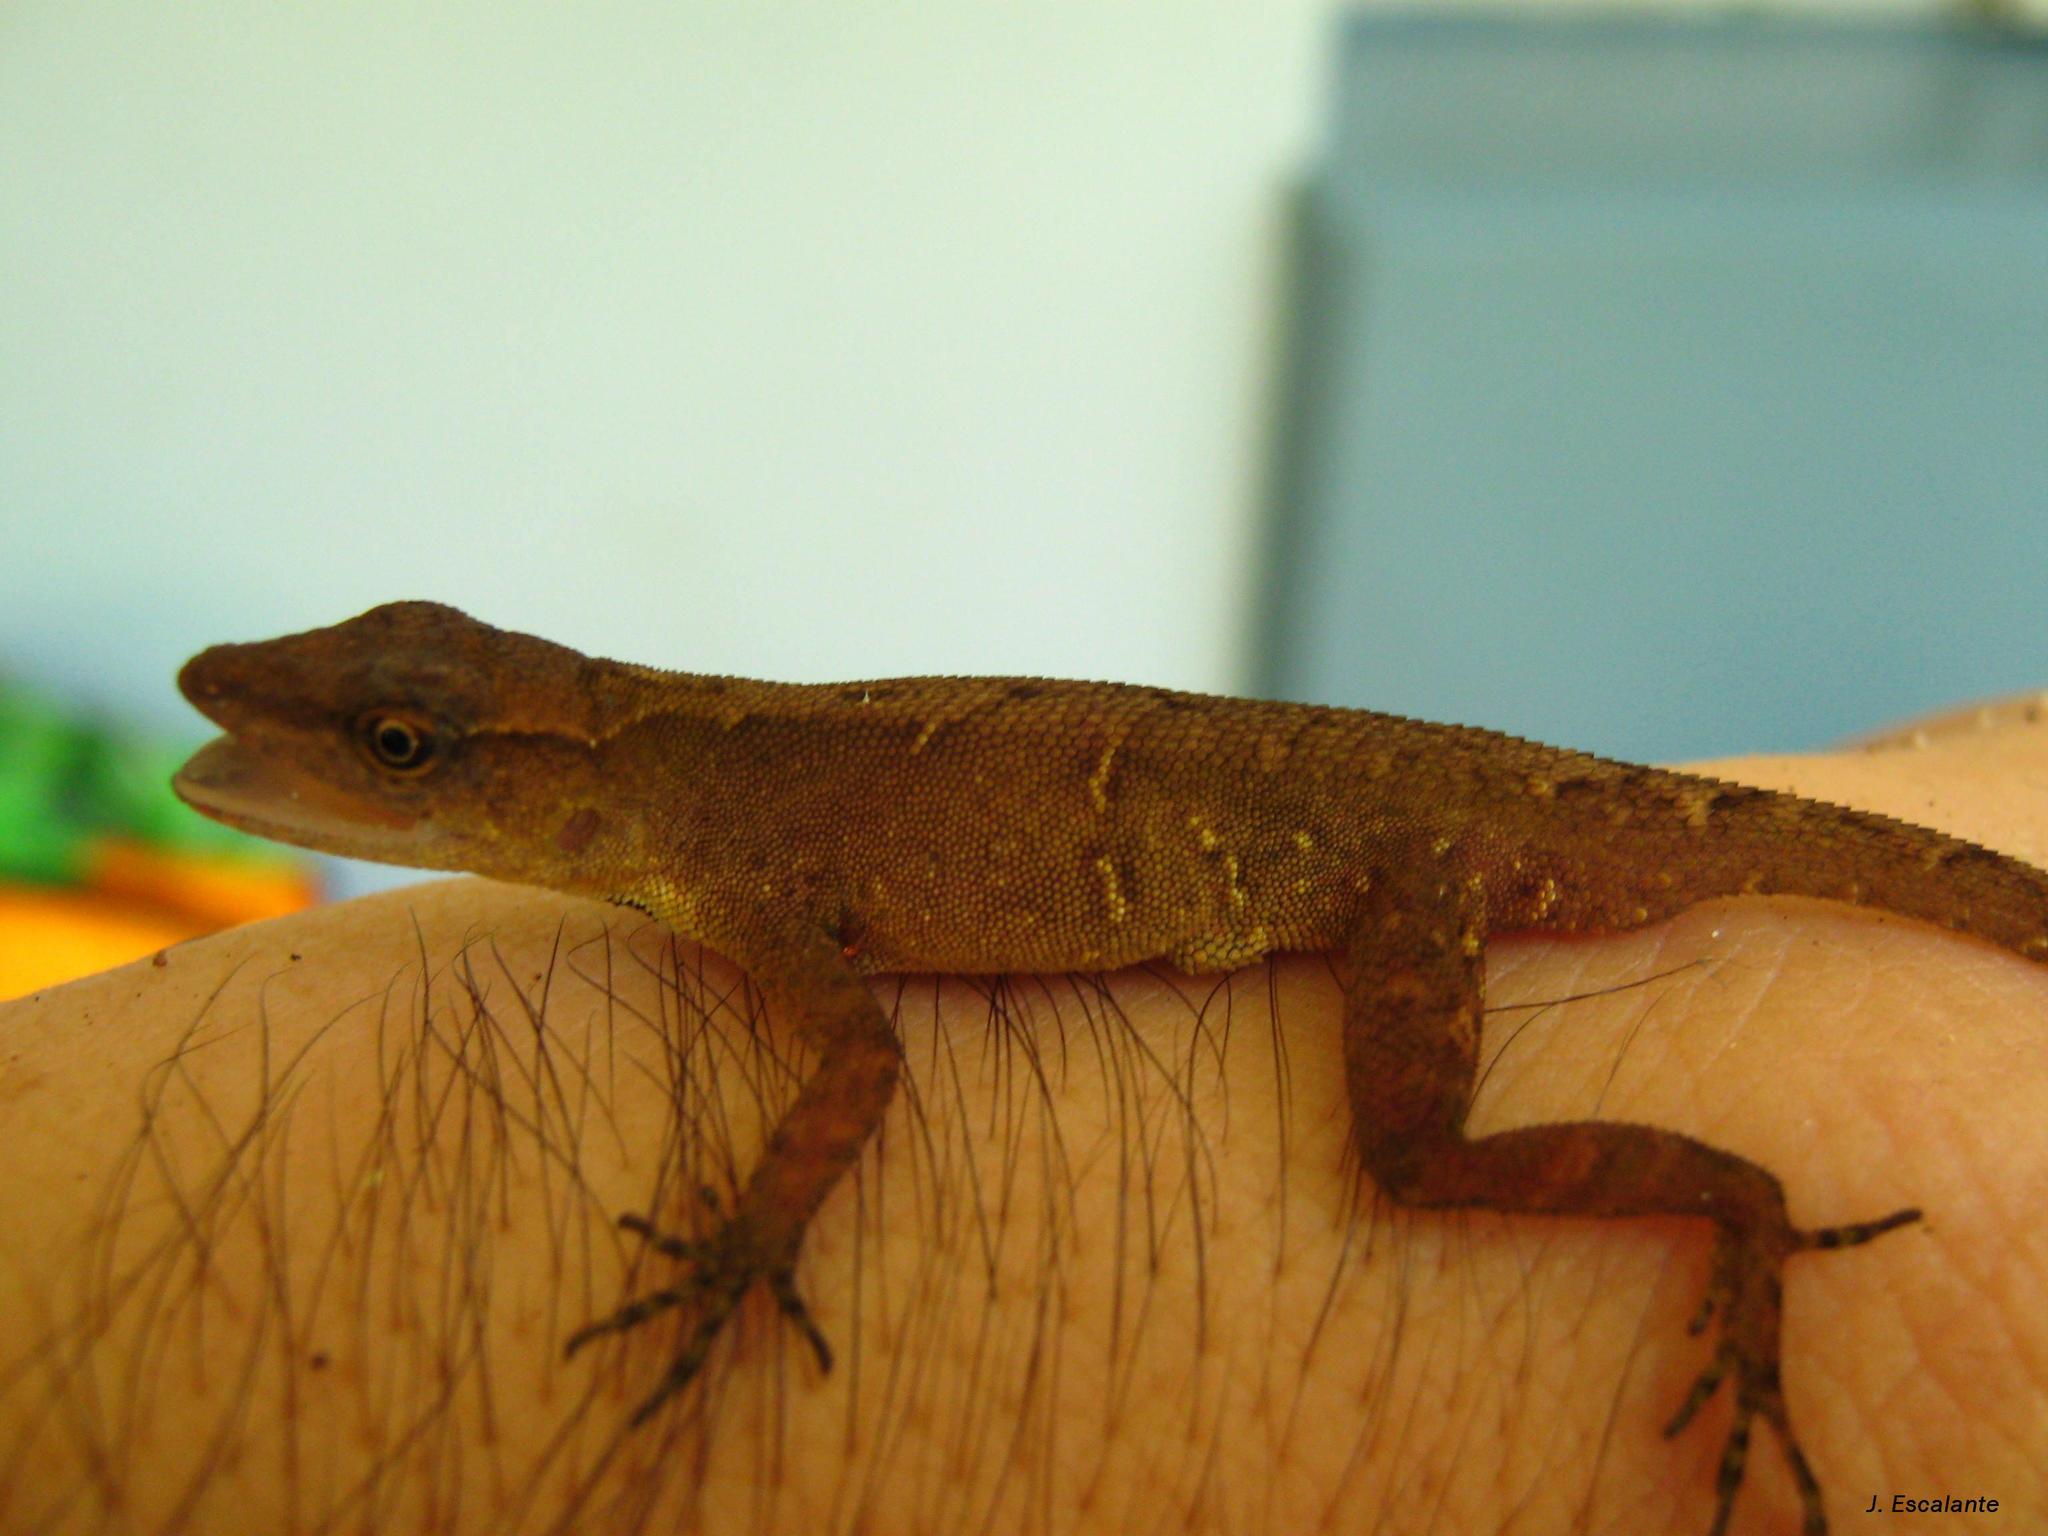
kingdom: Animalia
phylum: Chordata
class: Squamata
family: Dactyloidae
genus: Anolis
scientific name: Anolis uniformis
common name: Lesser scaly anole
